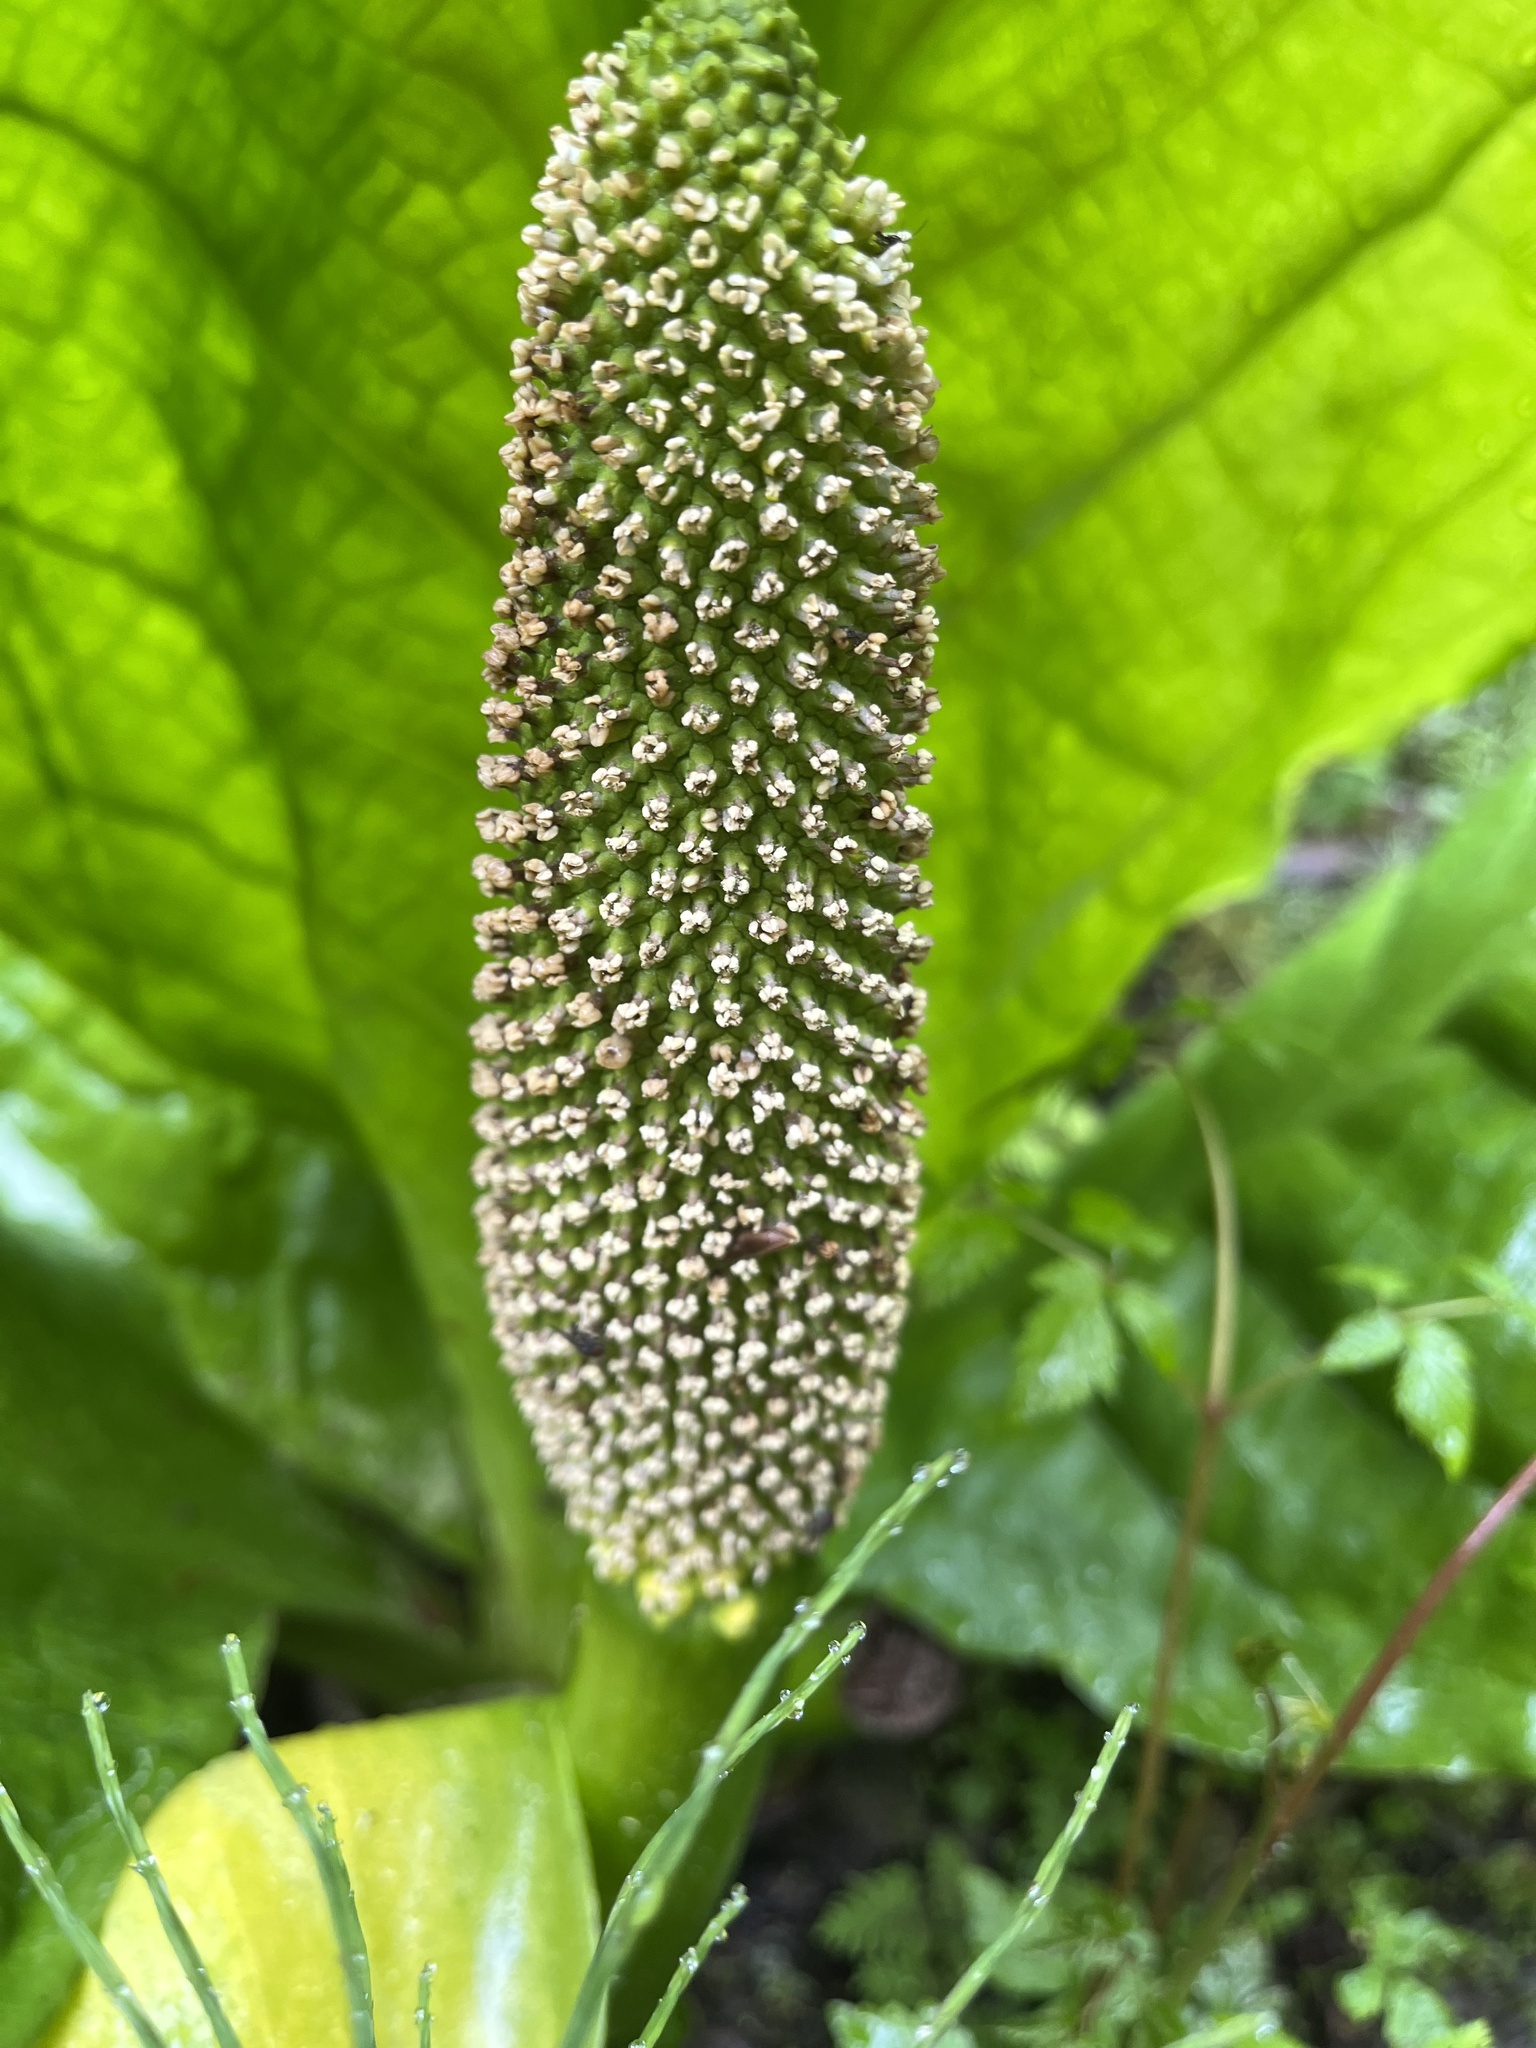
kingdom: Plantae
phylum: Tracheophyta
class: Liliopsida
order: Alismatales
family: Araceae
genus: Lysichiton
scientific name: Lysichiton americanus
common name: American skunk cabbage
